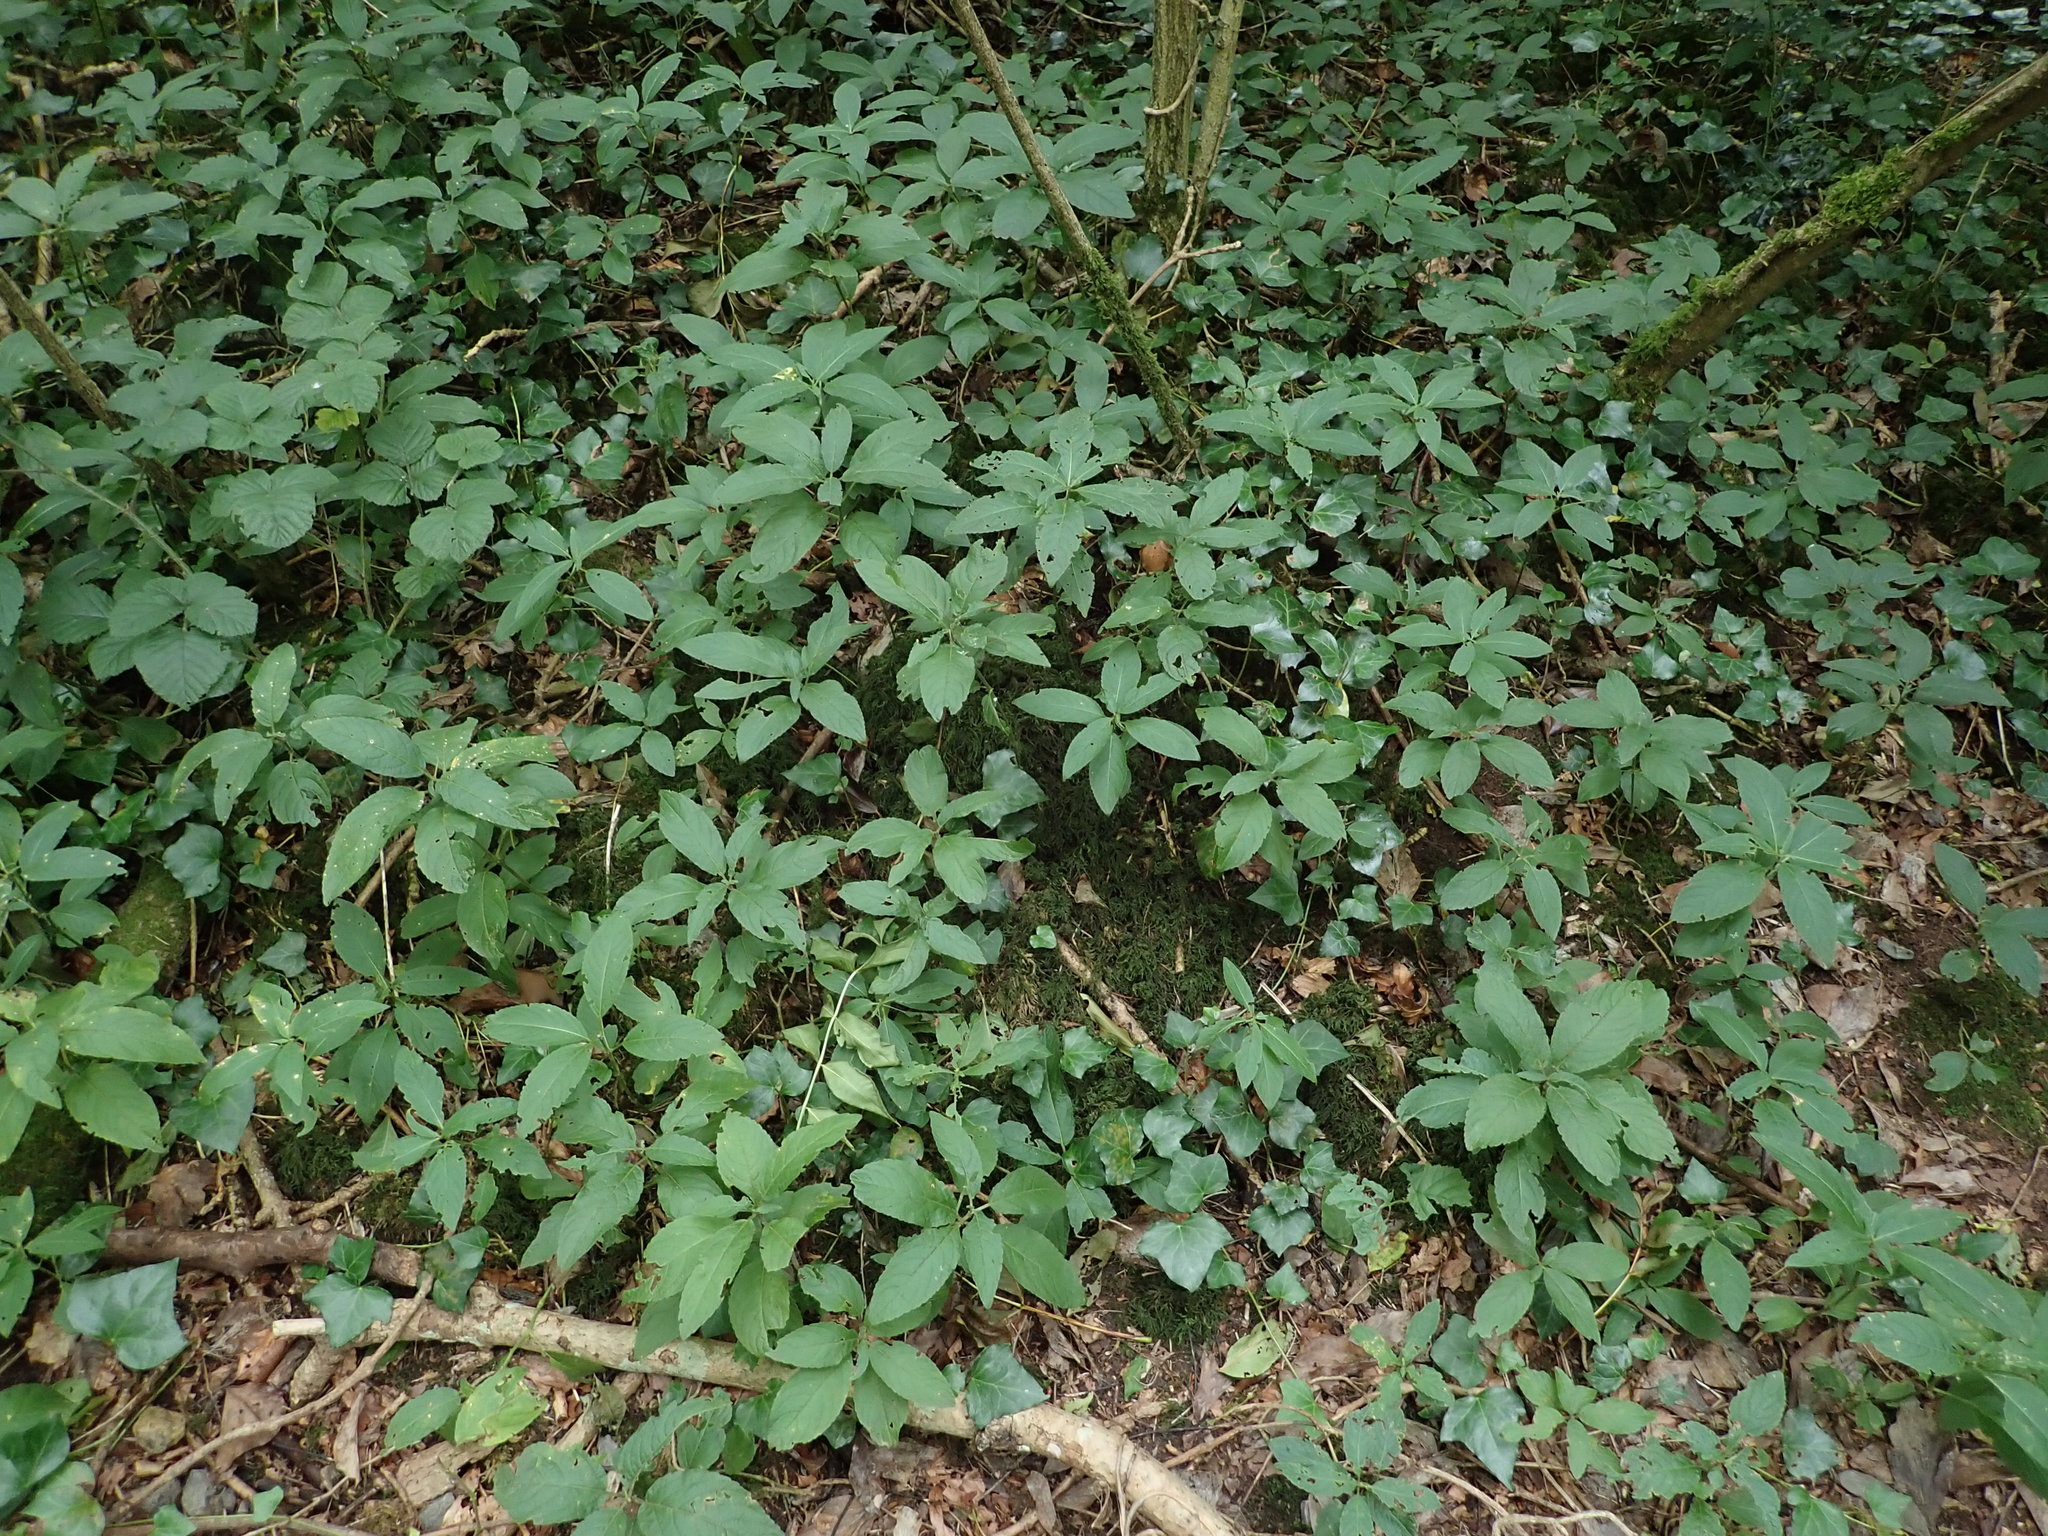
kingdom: Plantae
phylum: Tracheophyta
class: Magnoliopsida
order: Malpighiales
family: Euphorbiaceae
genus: Mercurialis
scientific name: Mercurialis perennis
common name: Dog mercury
